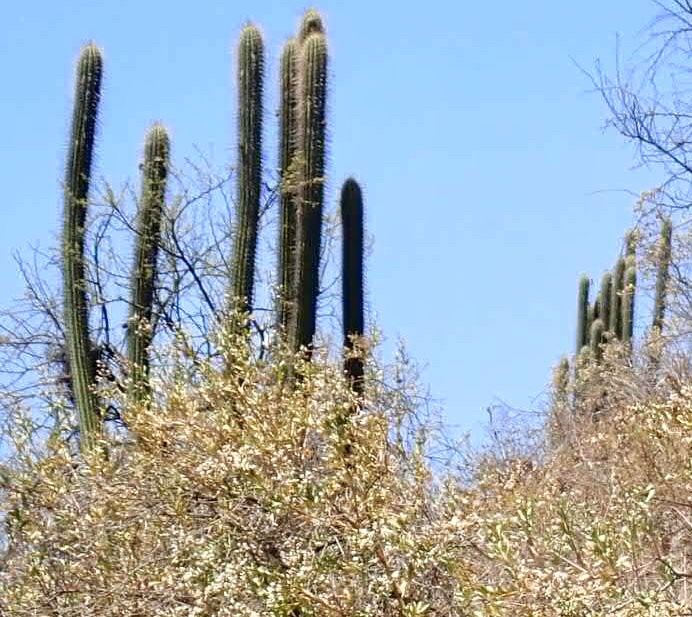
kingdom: Plantae
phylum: Tracheophyta
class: Magnoliopsida
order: Caryophyllales
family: Cactaceae
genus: Leucostele
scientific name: Leucostele chiloensis
